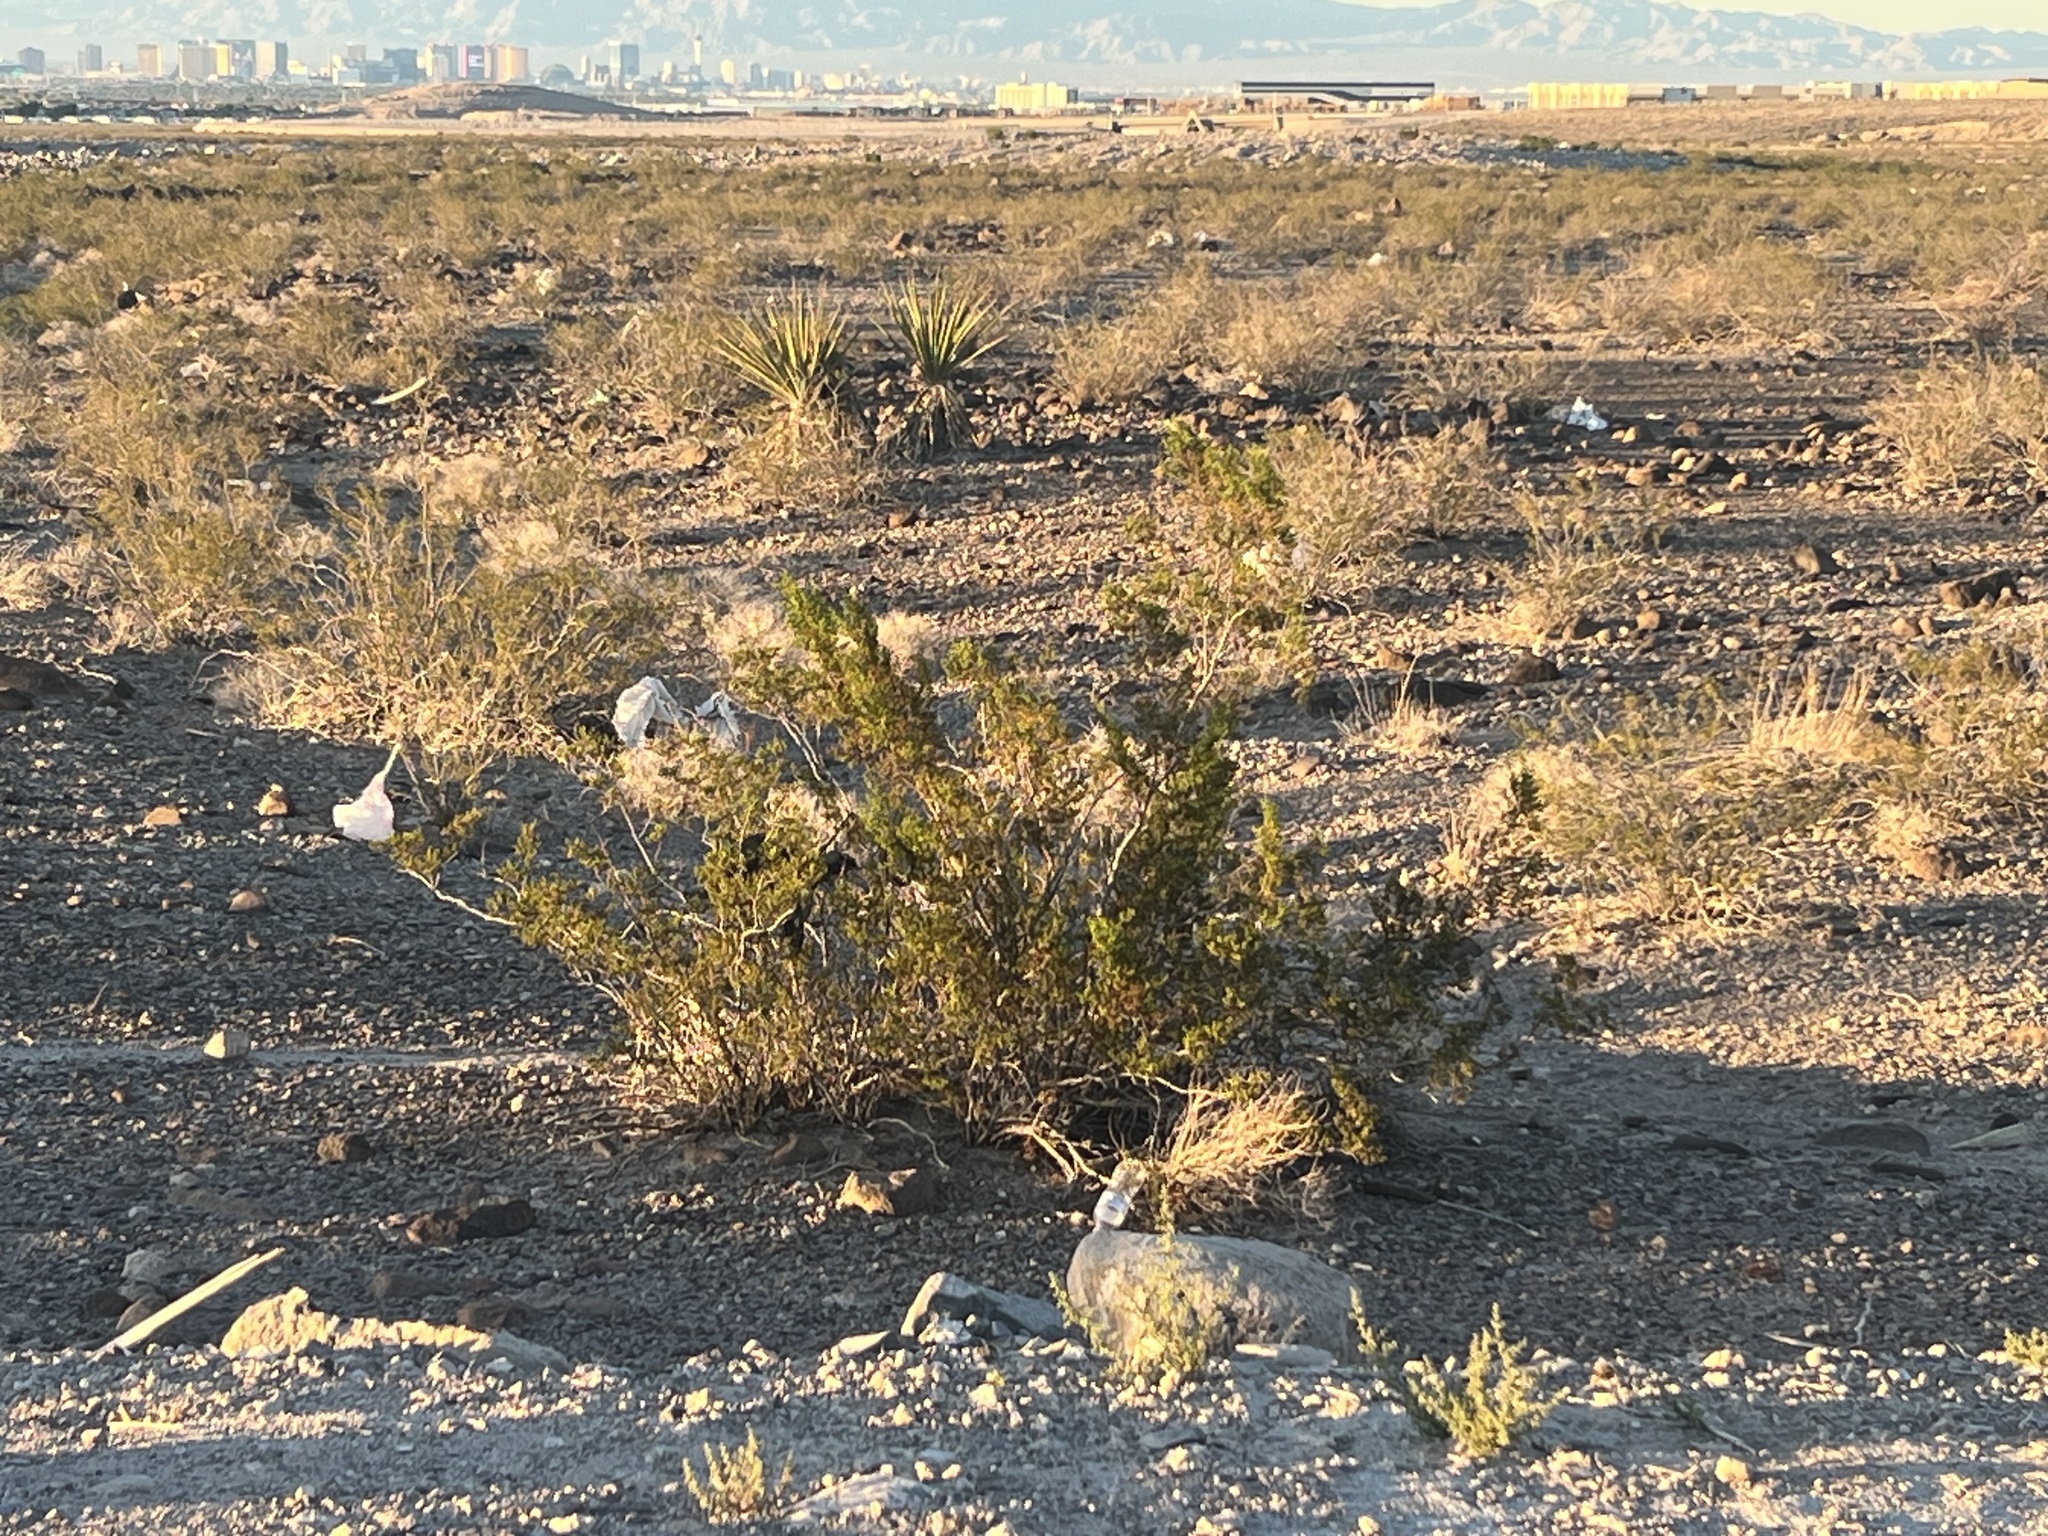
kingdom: Plantae
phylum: Tracheophyta
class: Magnoliopsida
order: Zygophyllales
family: Zygophyllaceae
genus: Larrea
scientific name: Larrea tridentata
